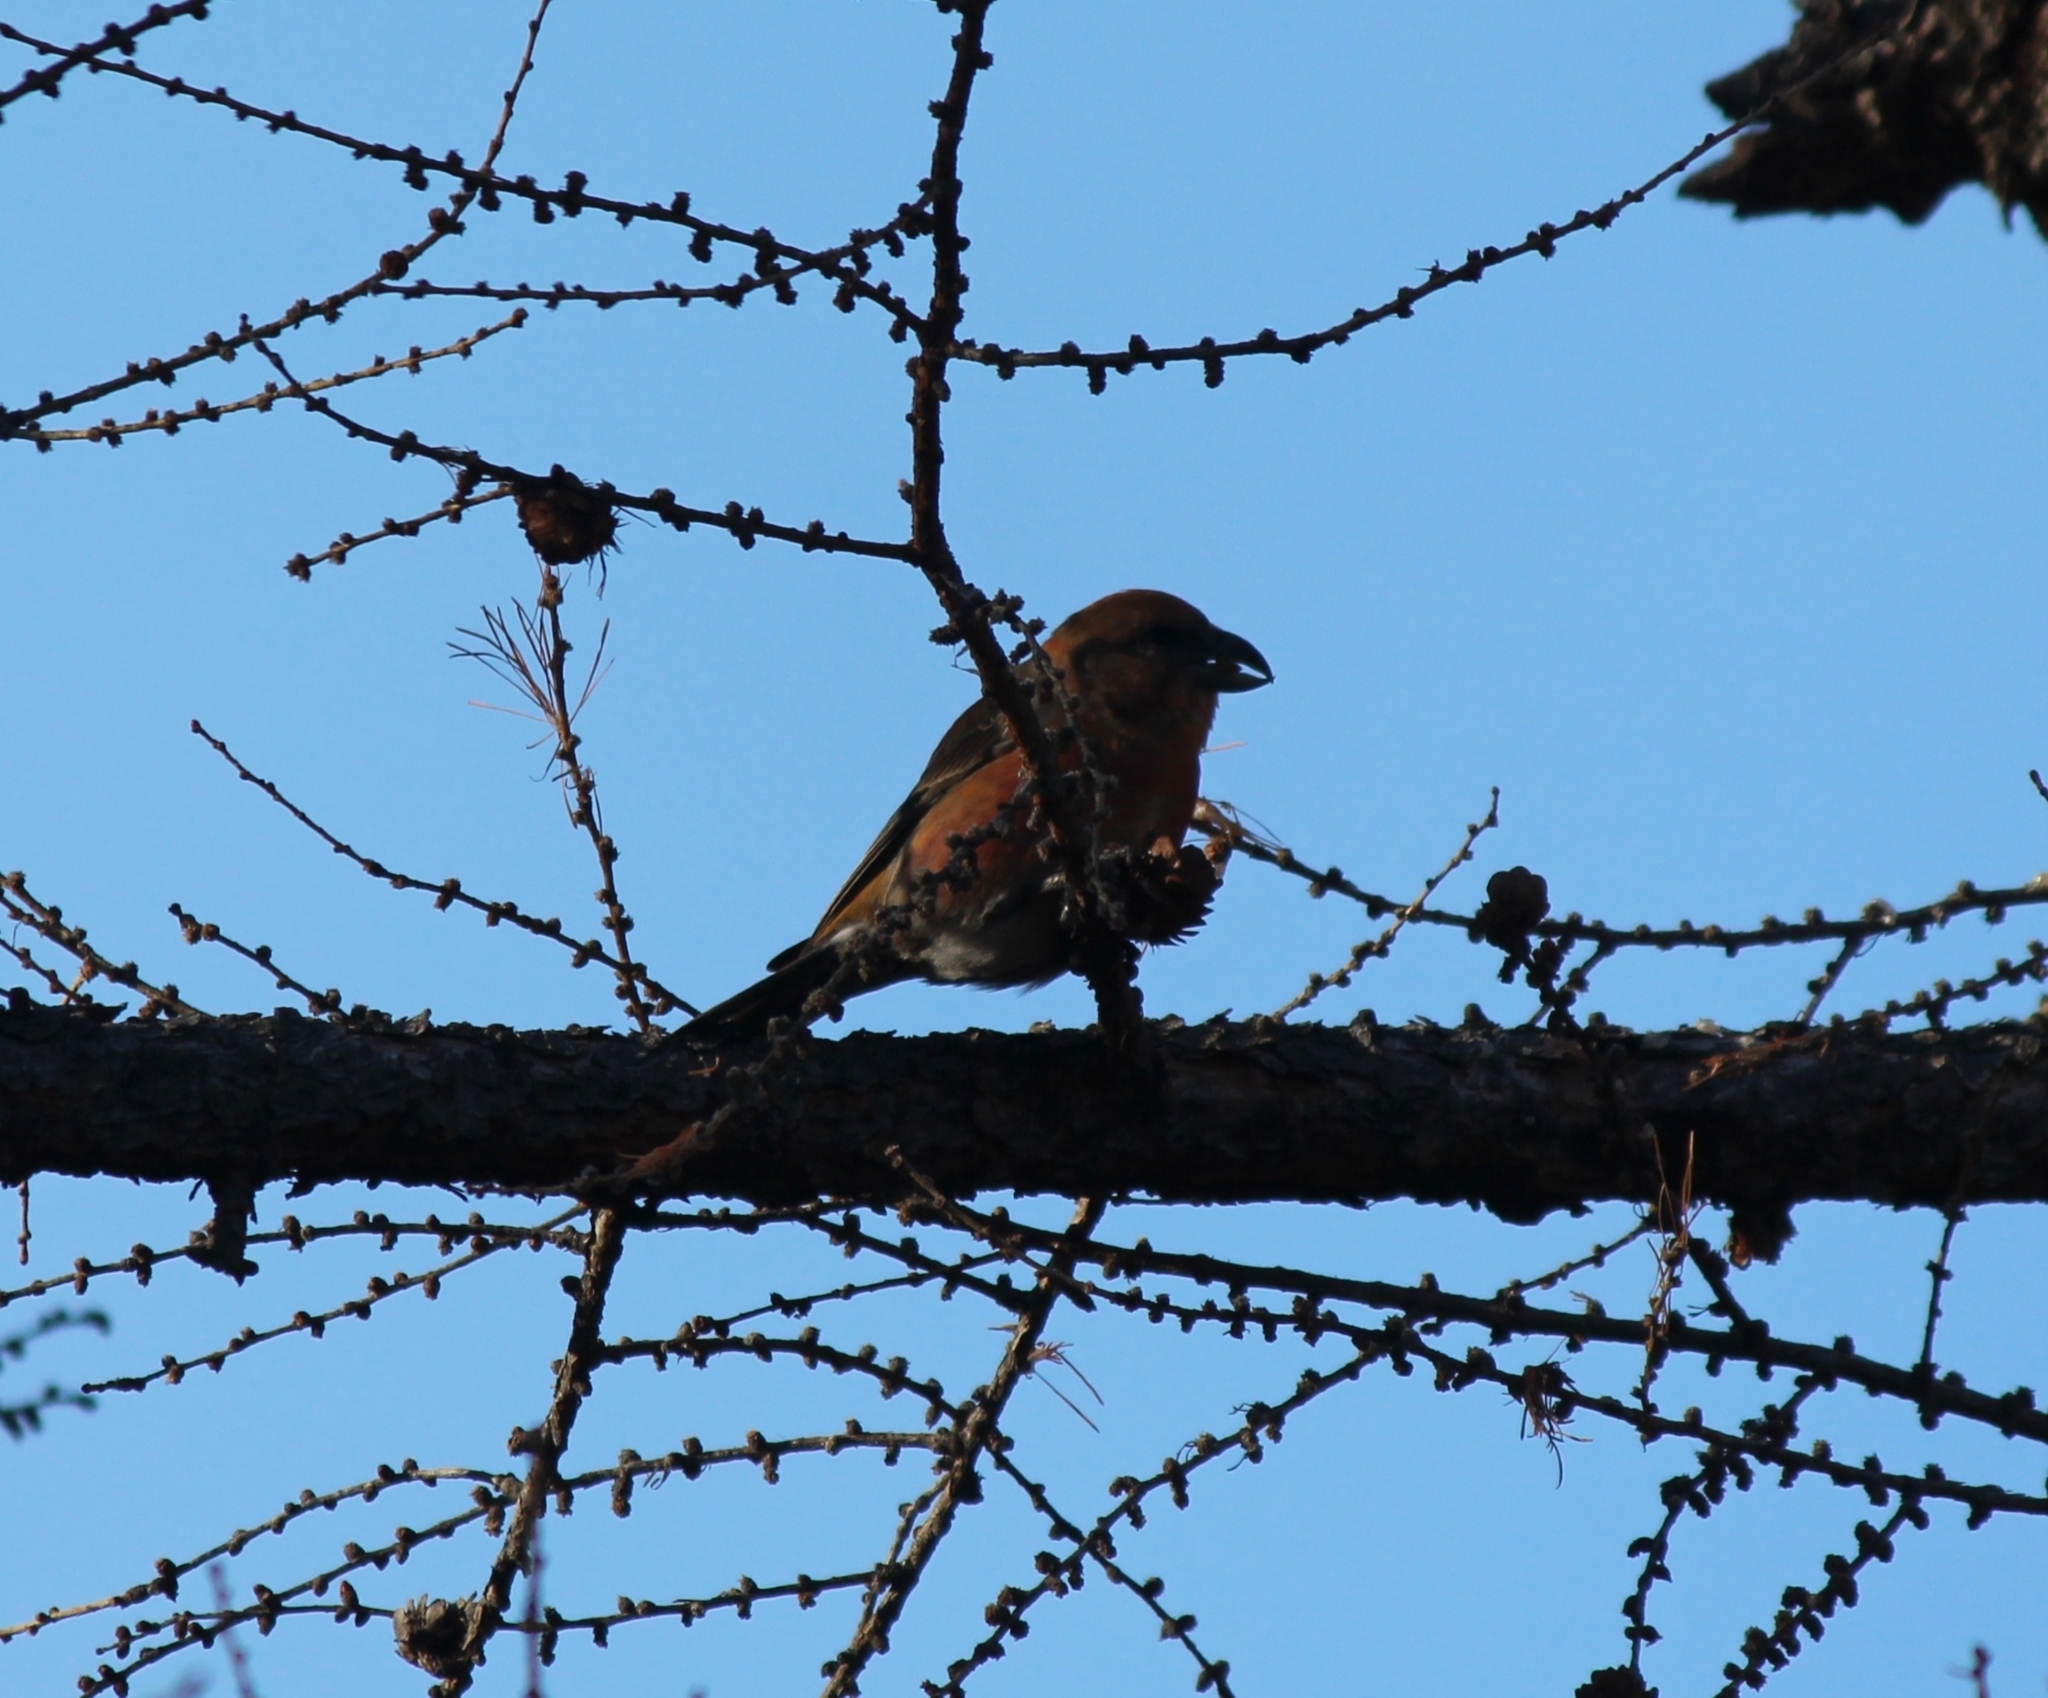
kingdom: Animalia
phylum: Chordata
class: Aves
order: Passeriformes
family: Fringillidae
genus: Loxia
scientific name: Loxia curvirostra
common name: Red crossbill
